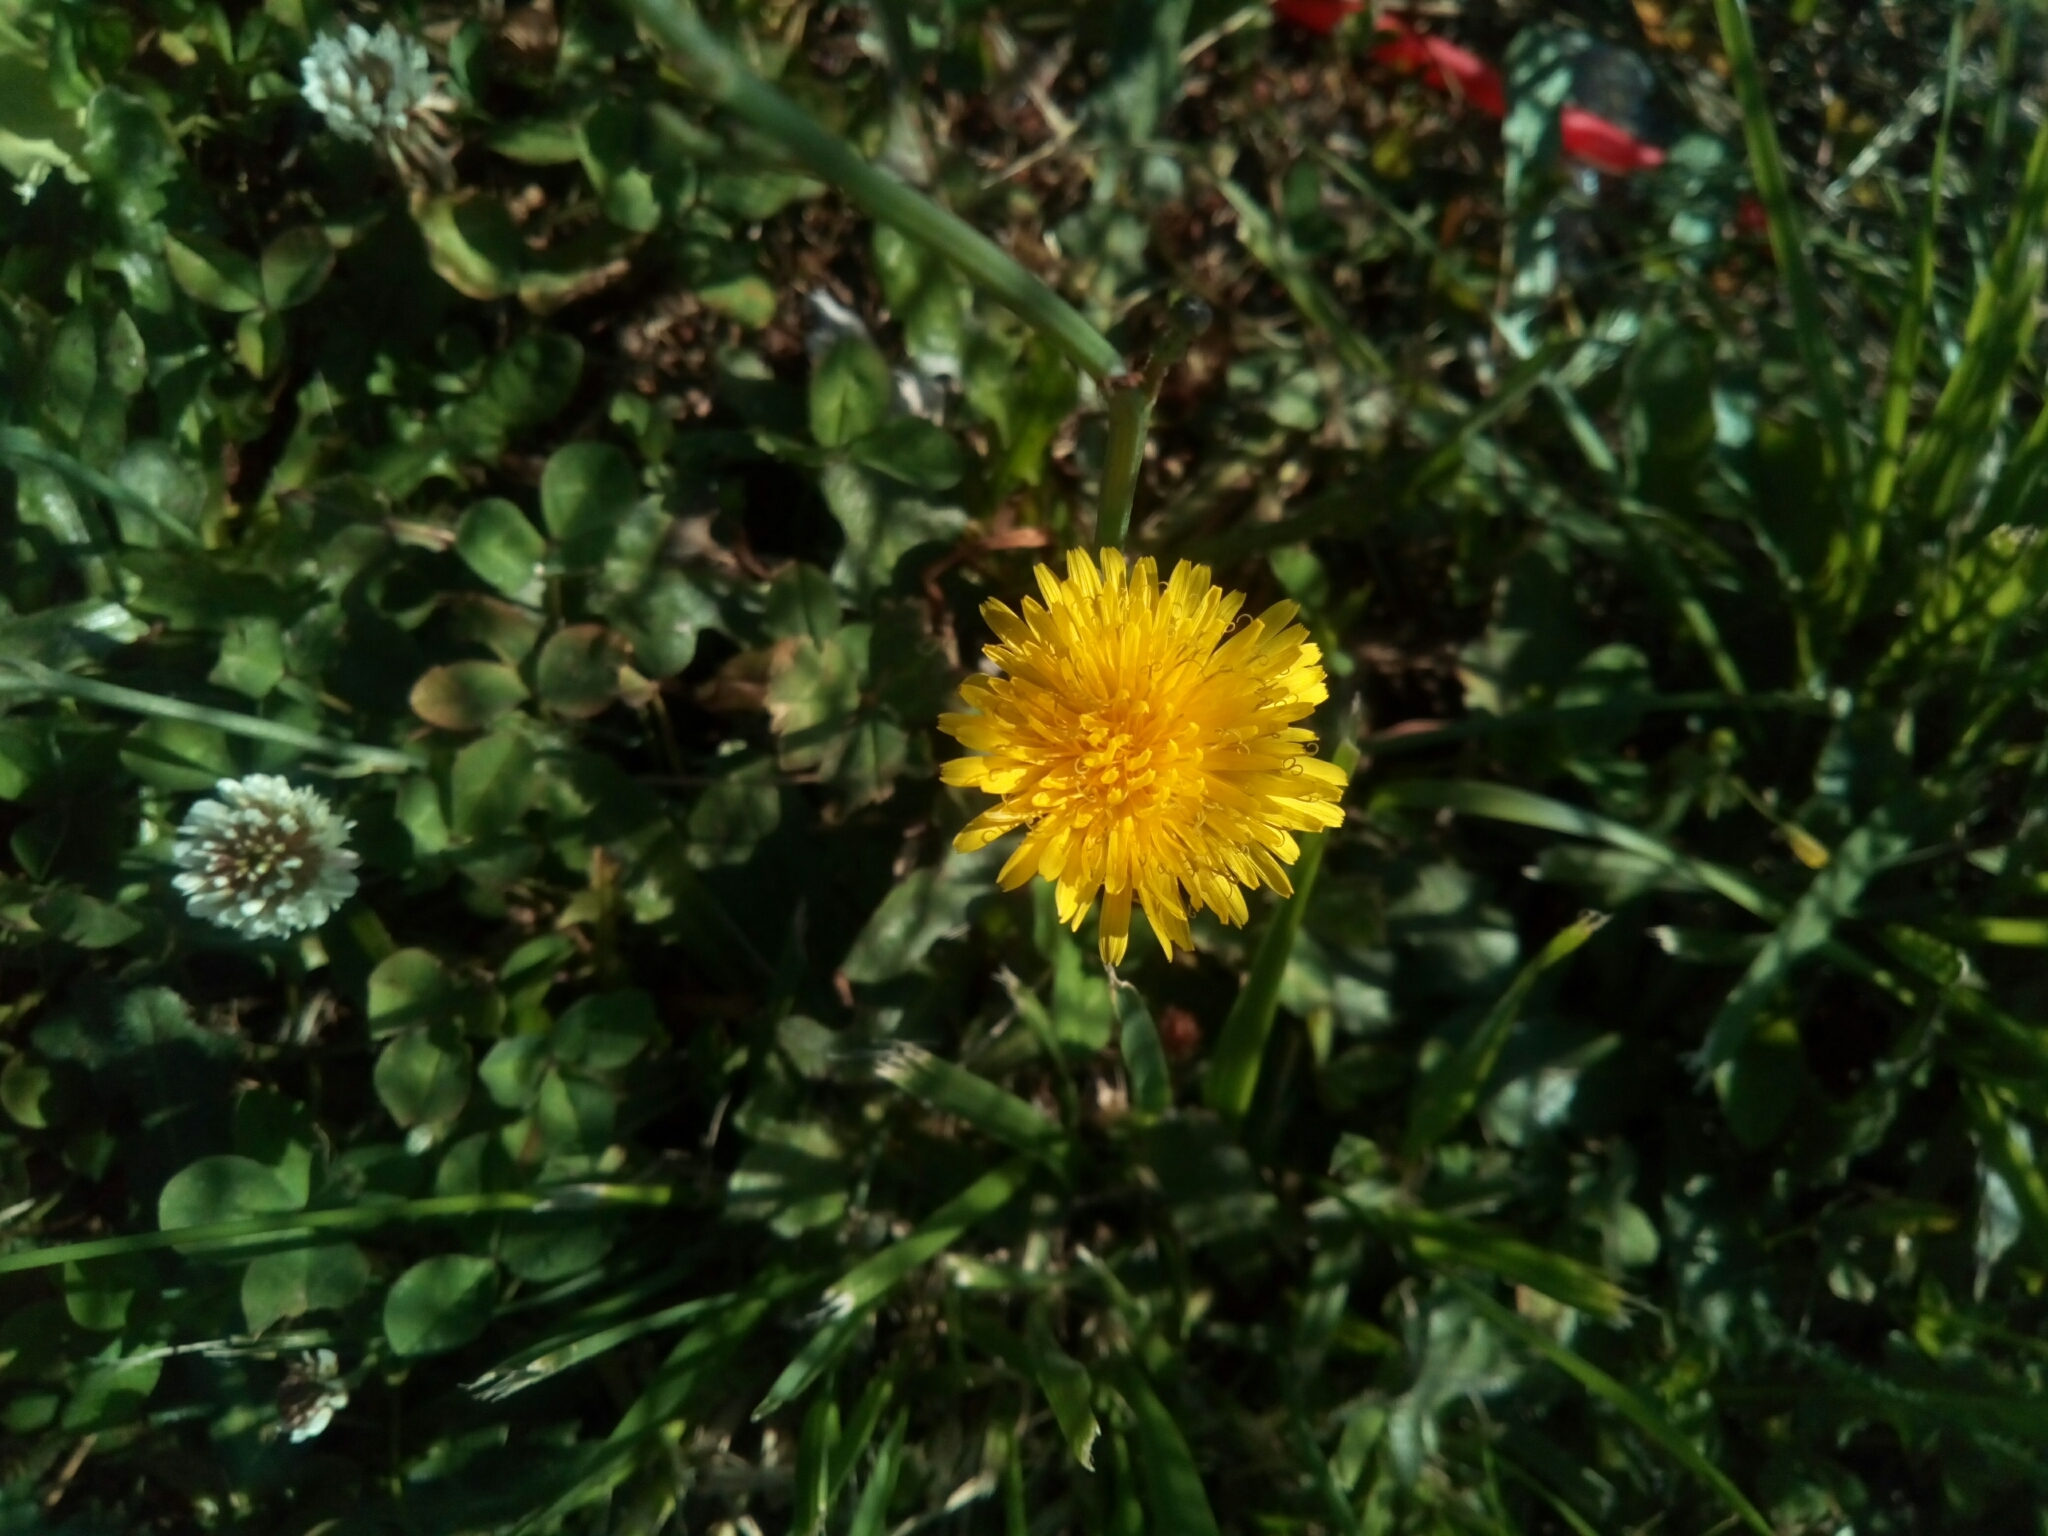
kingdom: Plantae
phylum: Tracheophyta
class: Magnoliopsida
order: Asterales
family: Asteraceae
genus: Taraxacum
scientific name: Taraxacum officinale
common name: Common dandelion
